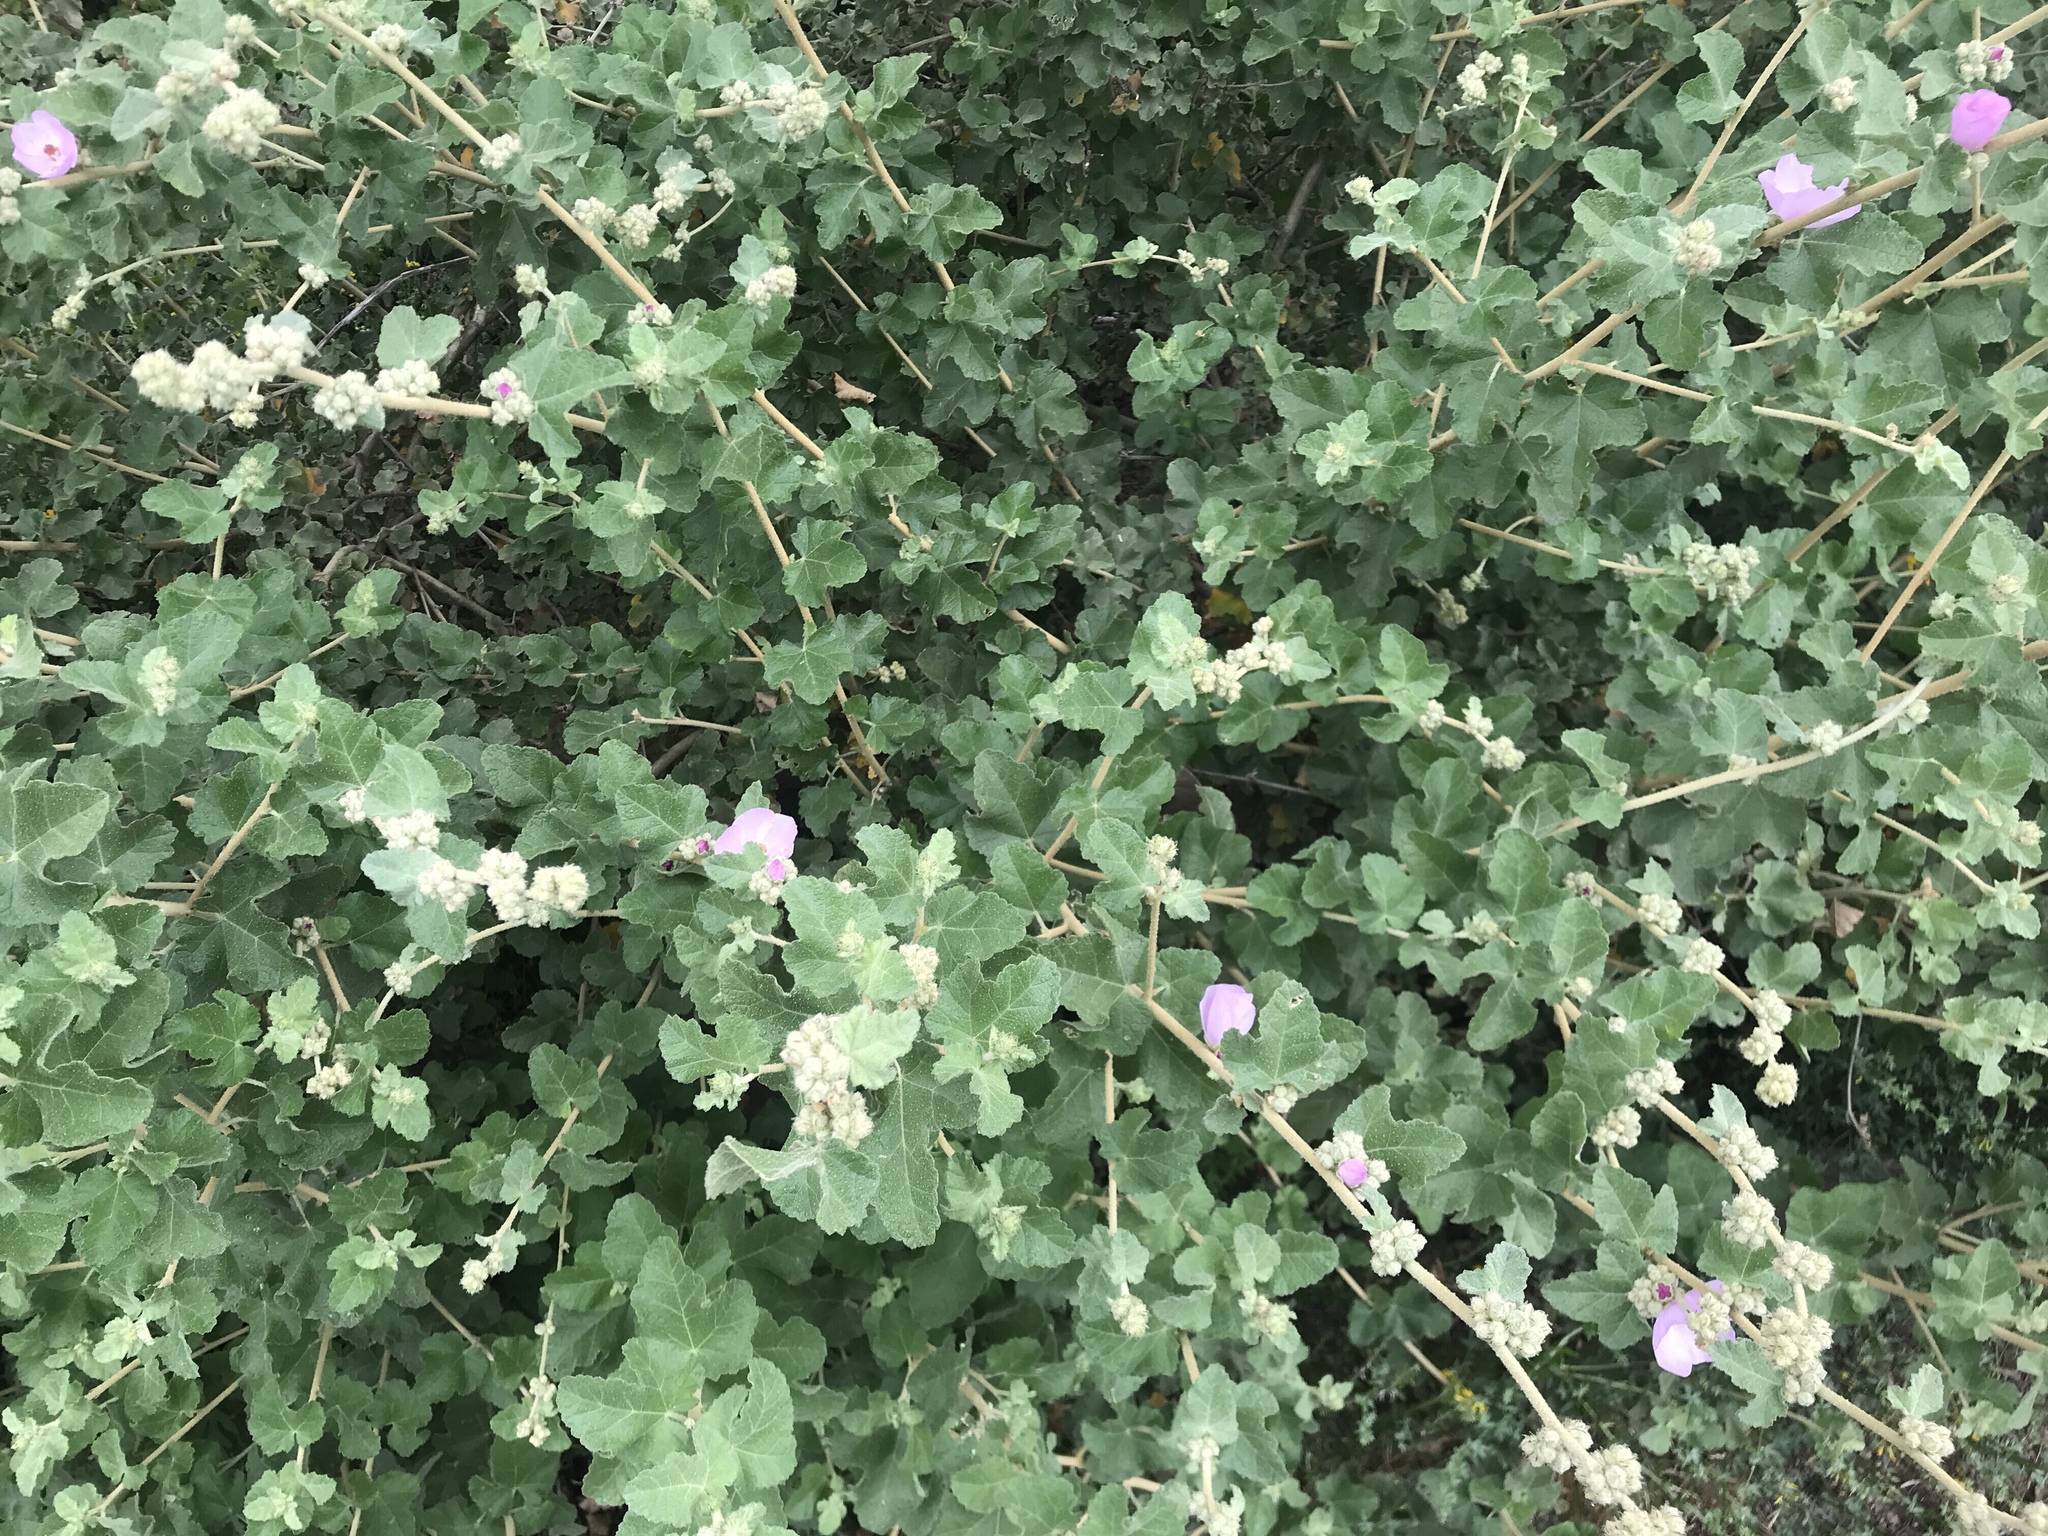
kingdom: Plantae
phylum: Tracheophyta
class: Magnoliopsida
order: Malvales
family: Malvaceae
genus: Malacothamnus
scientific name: Malacothamnus fasciculatus
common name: Sant cruz island bush-mallow
